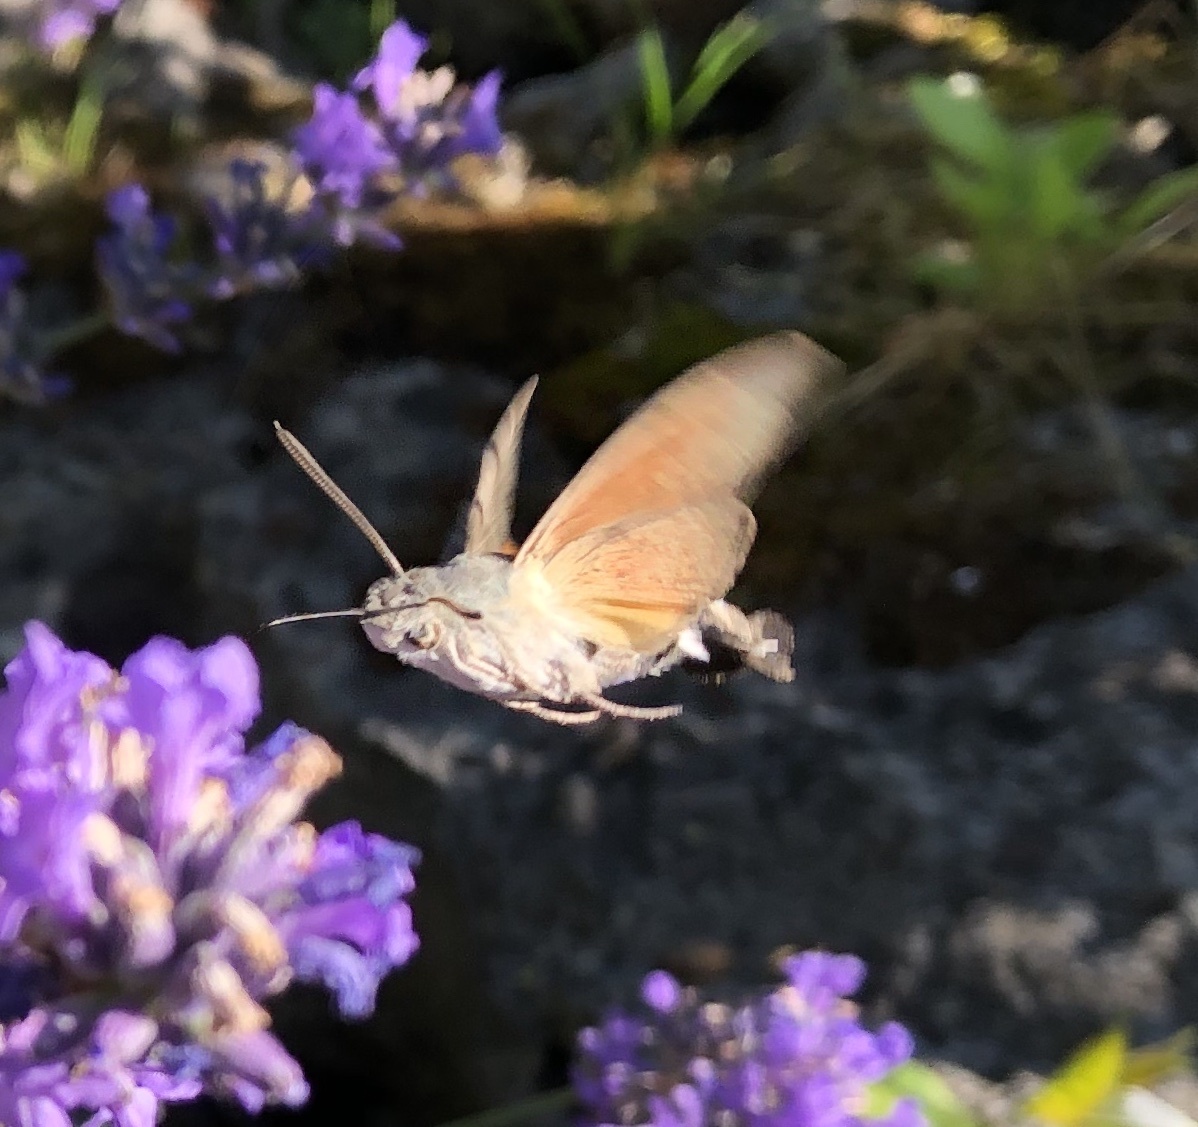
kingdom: Animalia
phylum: Arthropoda
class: Insecta
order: Lepidoptera
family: Sphingidae
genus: Macroglossum
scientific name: Macroglossum stellatarum
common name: Humming-bird hawk-moth
